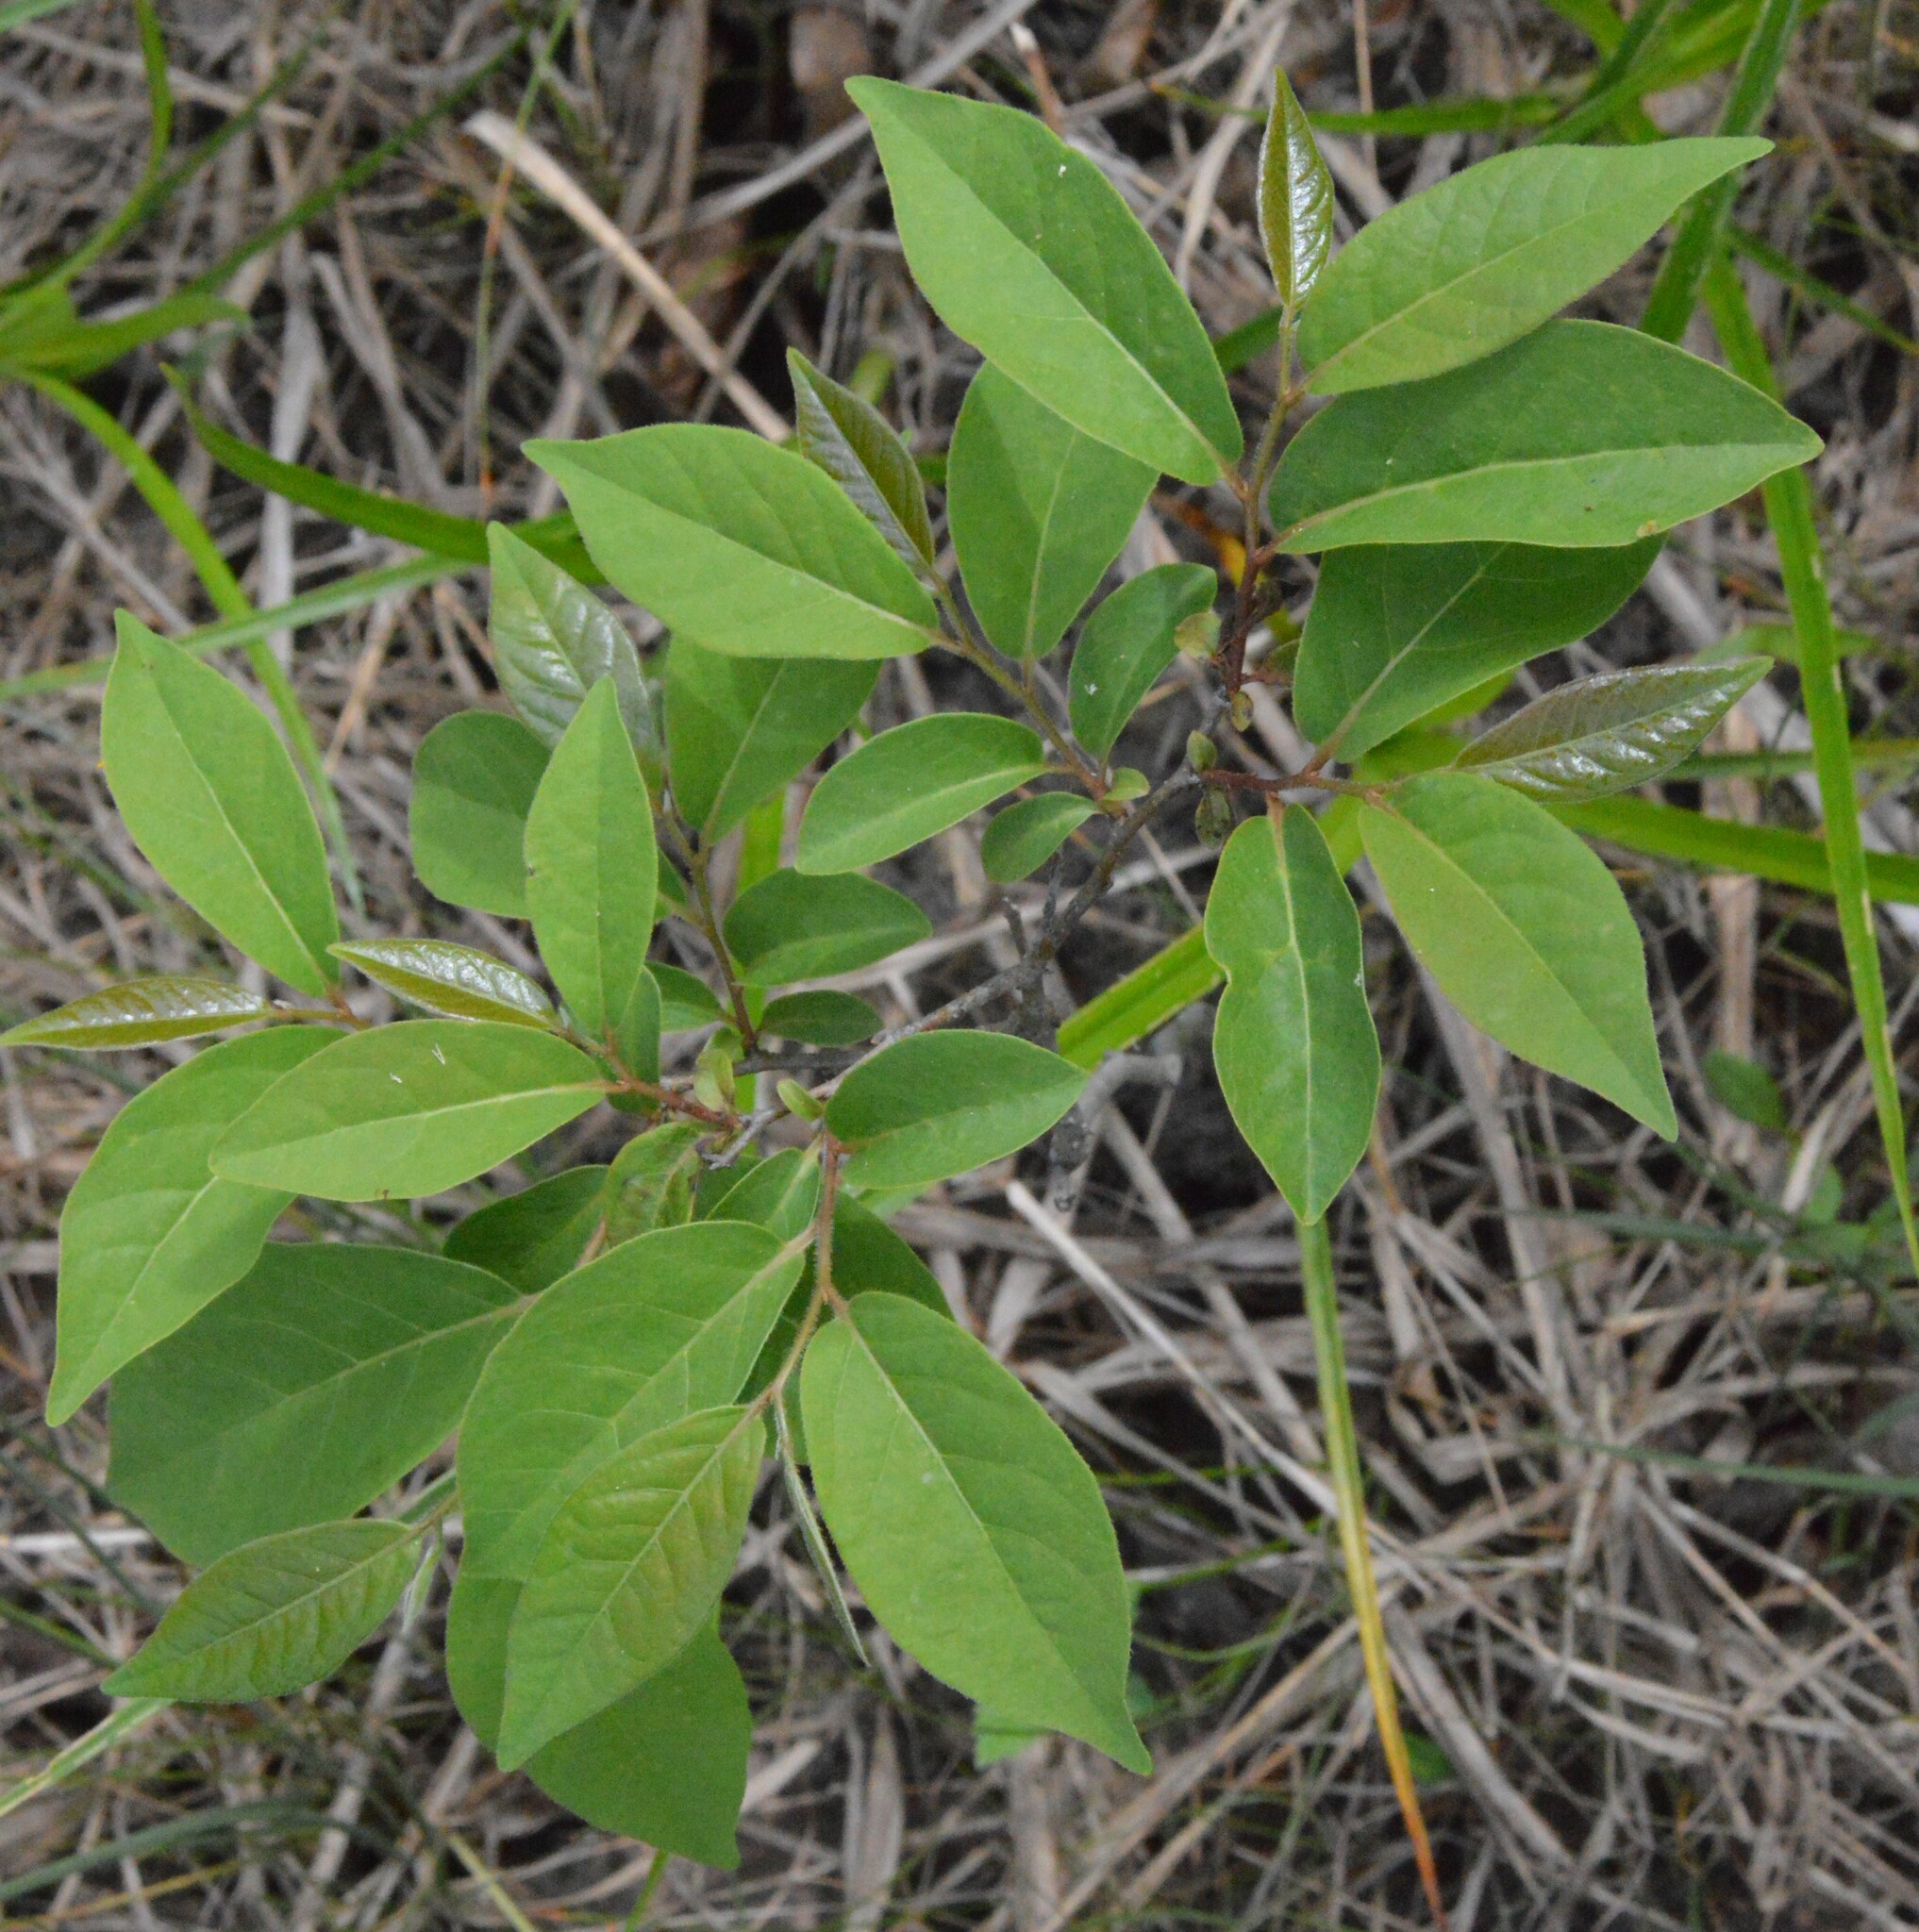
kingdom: Plantae
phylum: Tracheophyta
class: Magnoliopsida
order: Ericales
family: Ebenaceae
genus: Diospyros
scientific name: Diospyros virginiana
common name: Persimmon
